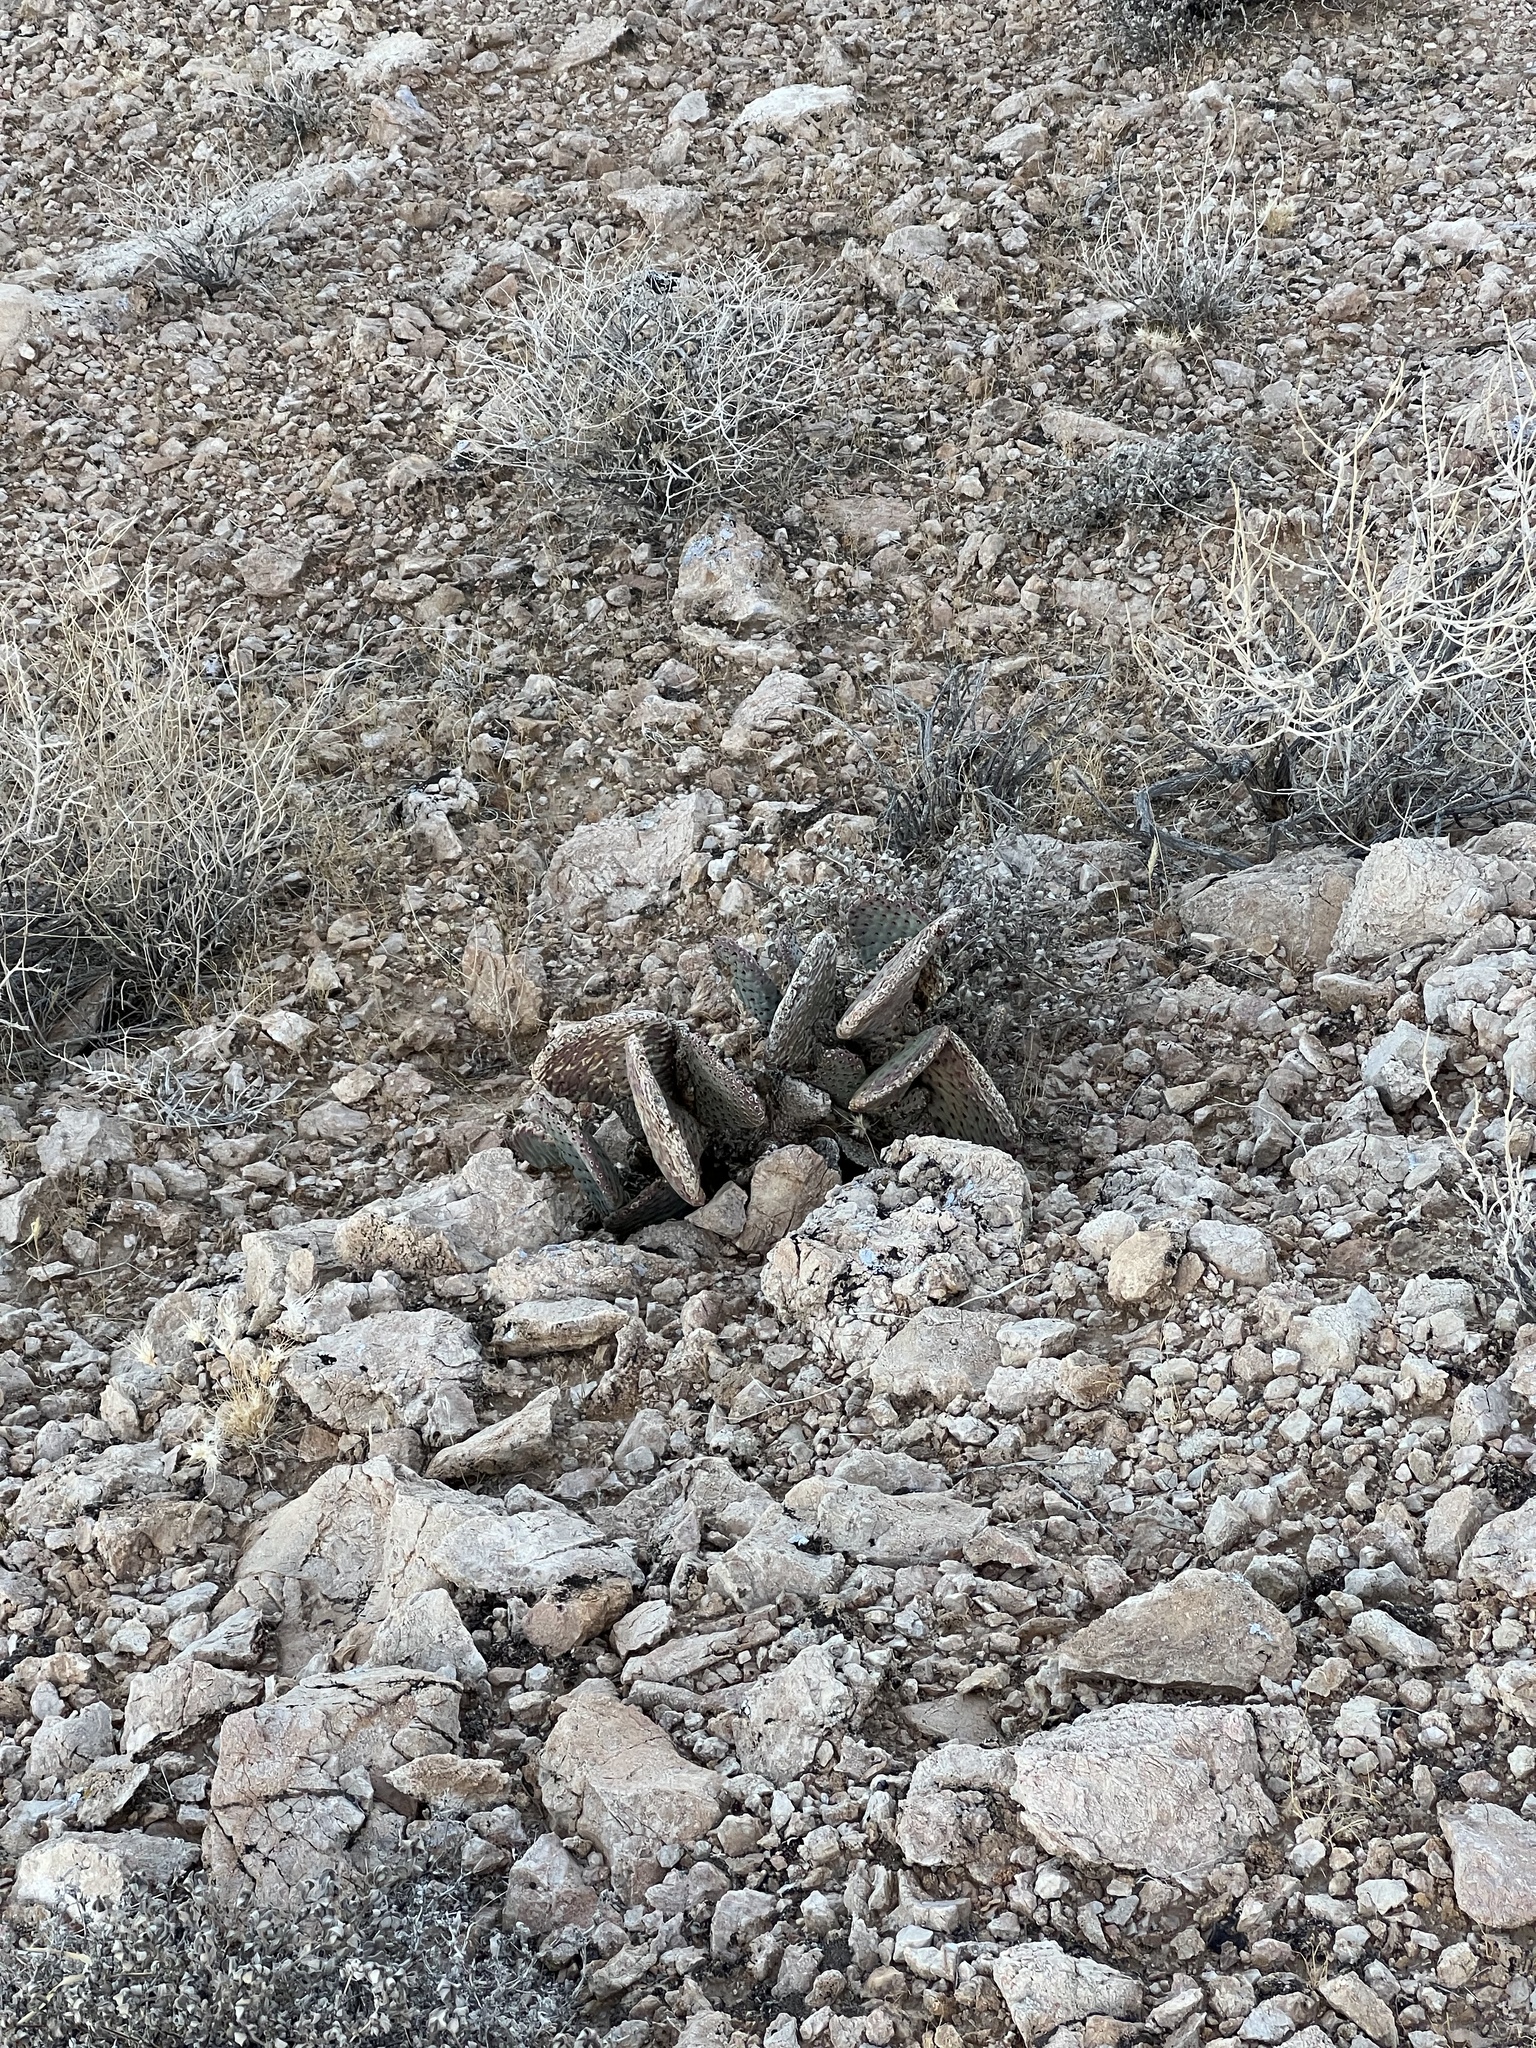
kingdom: Plantae
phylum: Tracheophyta
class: Magnoliopsida
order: Caryophyllales
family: Cactaceae
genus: Opuntia
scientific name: Opuntia basilaris
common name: Beavertail prickly-pear
